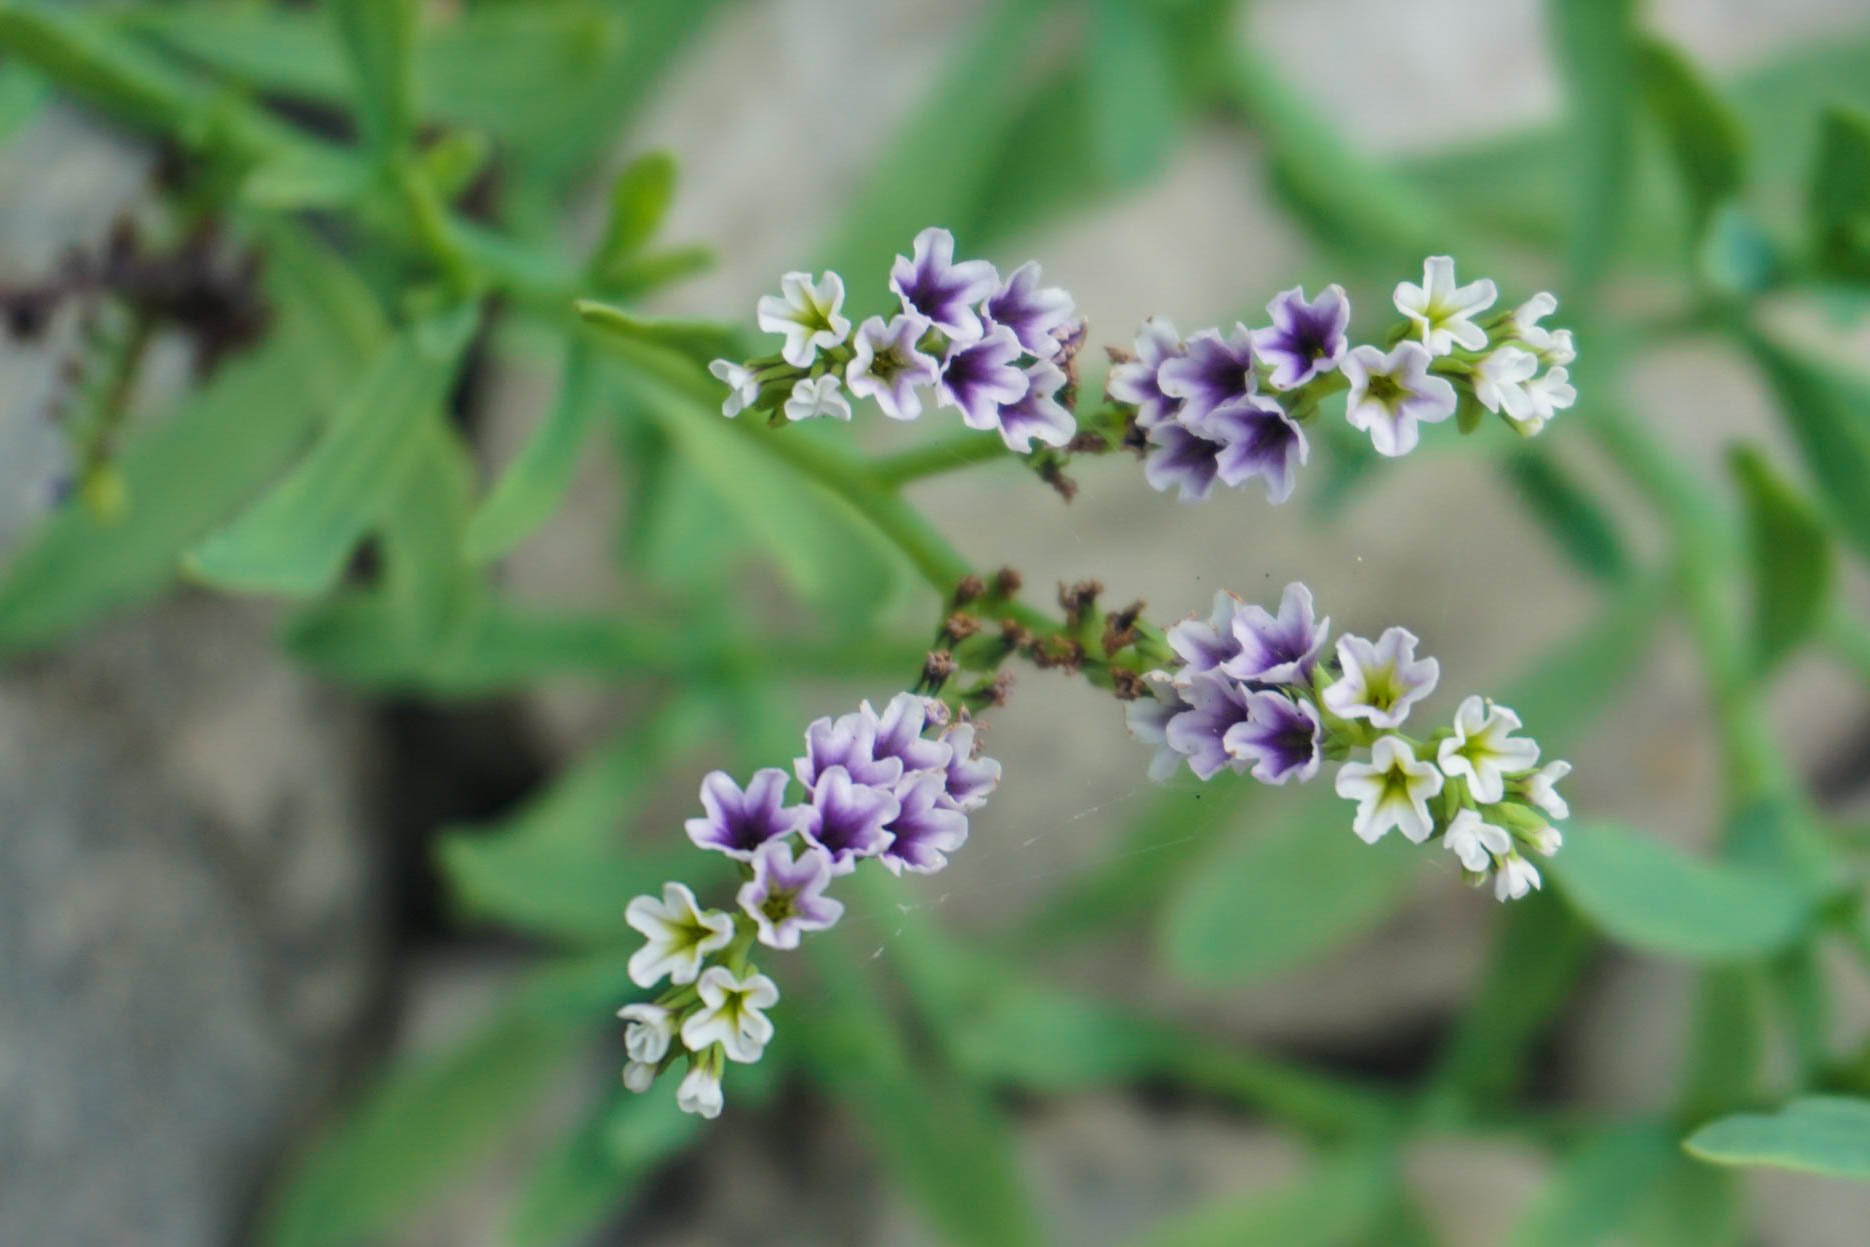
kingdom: Plantae
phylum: Tracheophyta
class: Magnoliopsida
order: Boraginales
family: Heliotropiaceae
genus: Heliotropium
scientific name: Heliotropium curassavicum
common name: Seaside heliotrope
